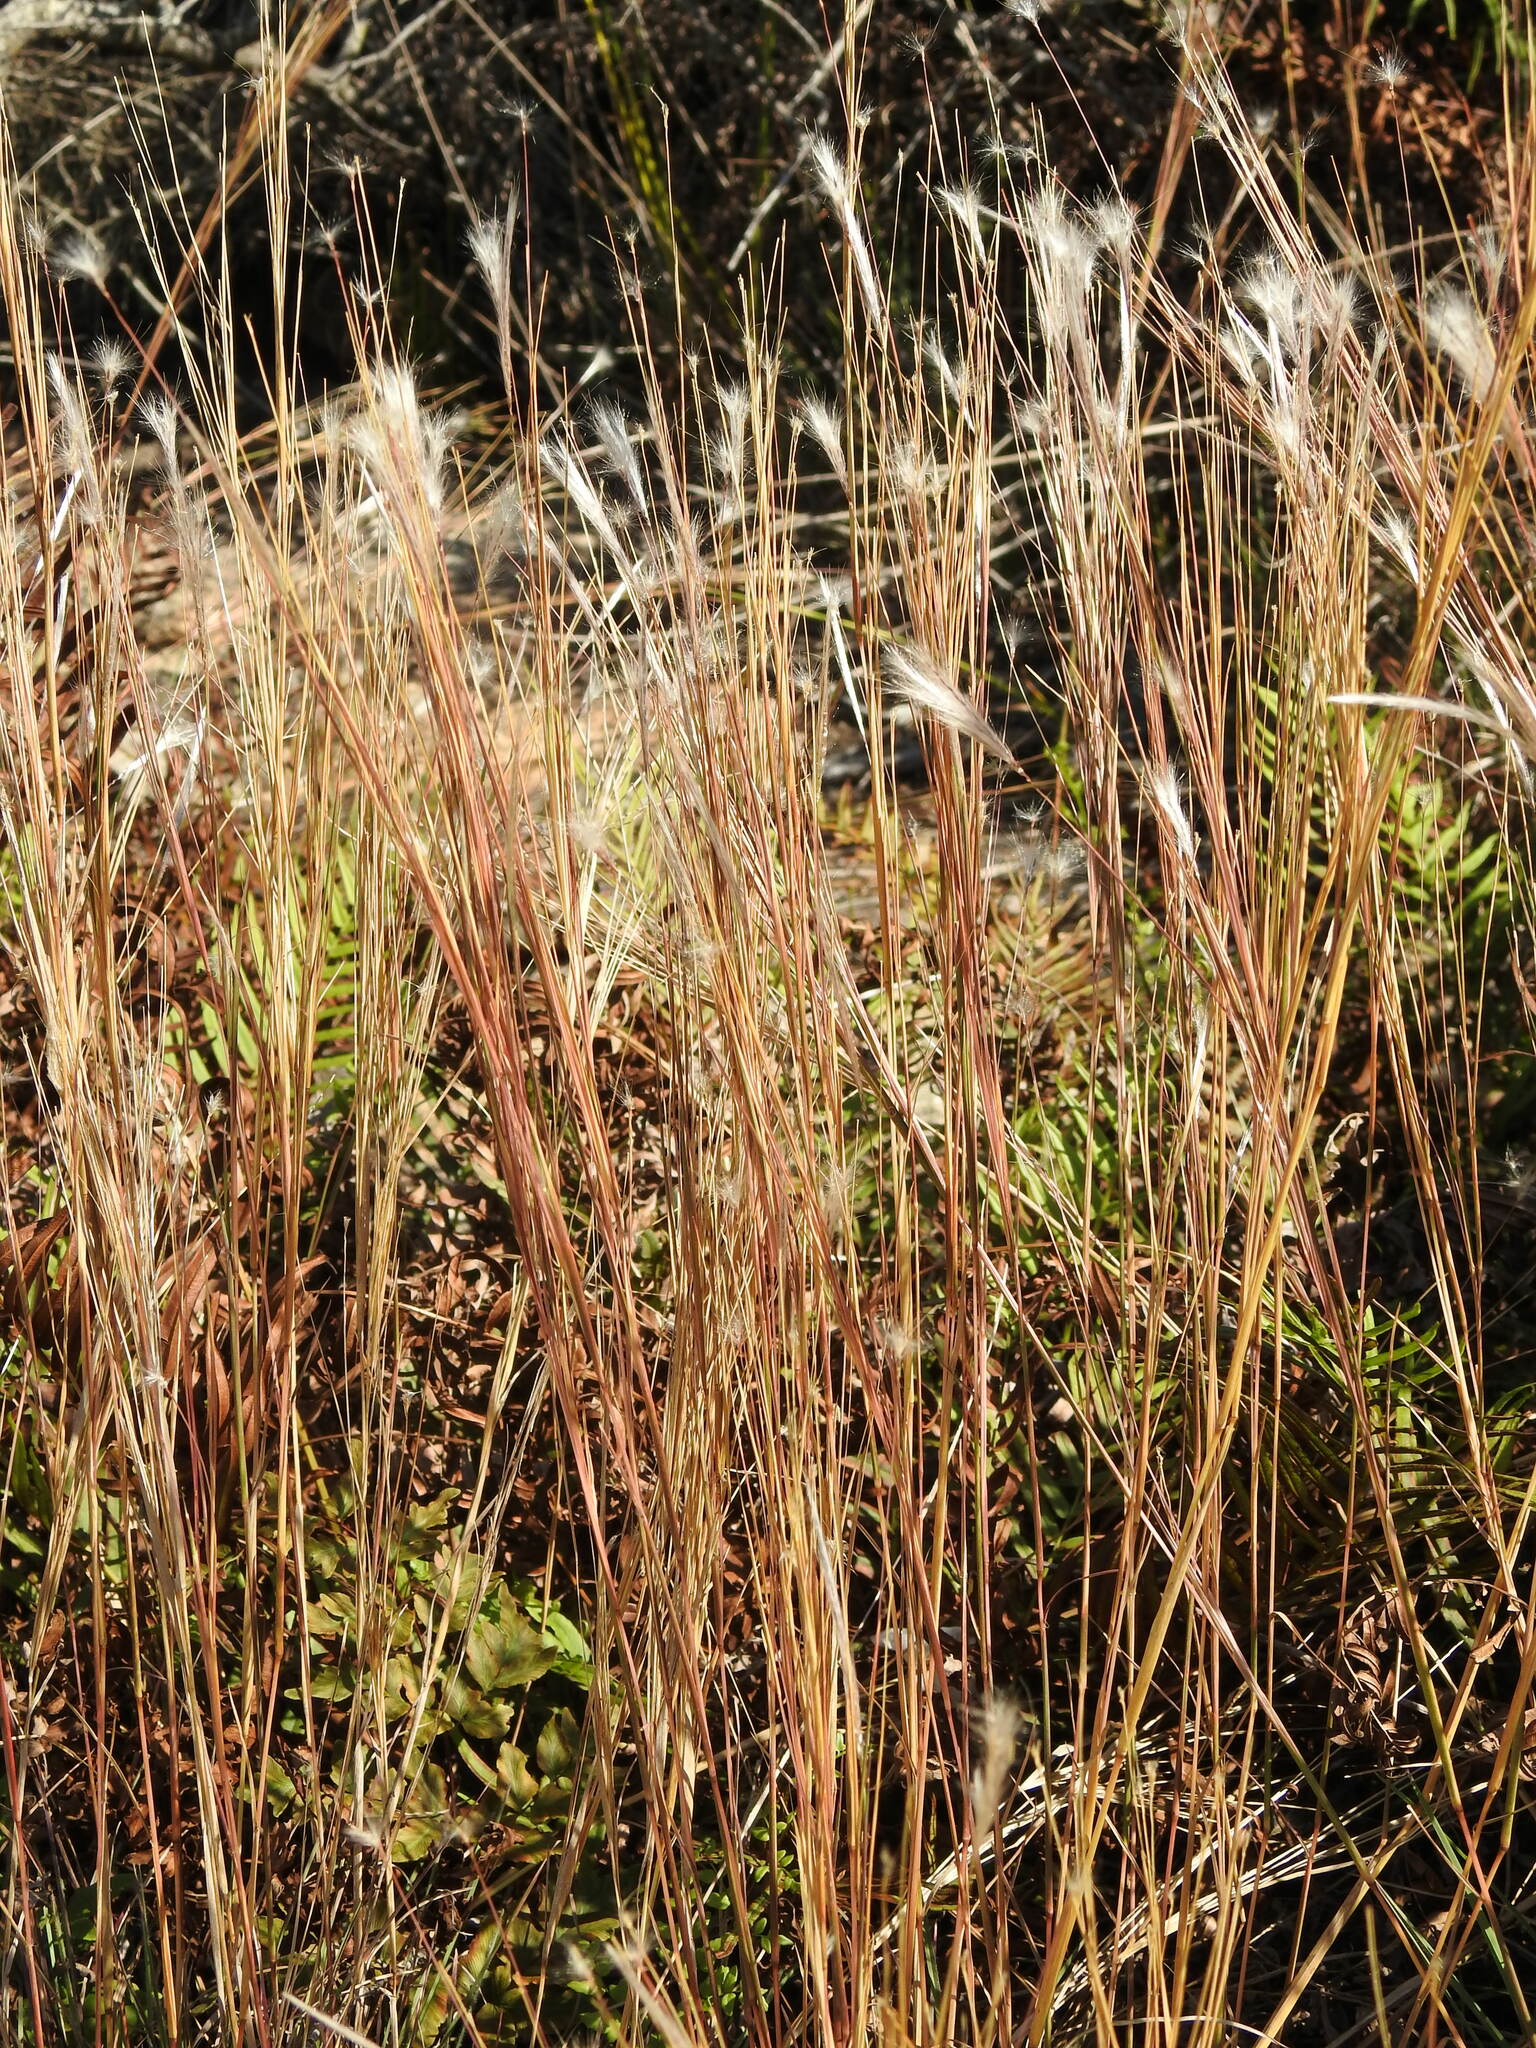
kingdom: Plantae
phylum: Tracheophyta
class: Liliopsida
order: Poales
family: Poaceae
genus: Andropogon
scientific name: Andropogon eucomus
